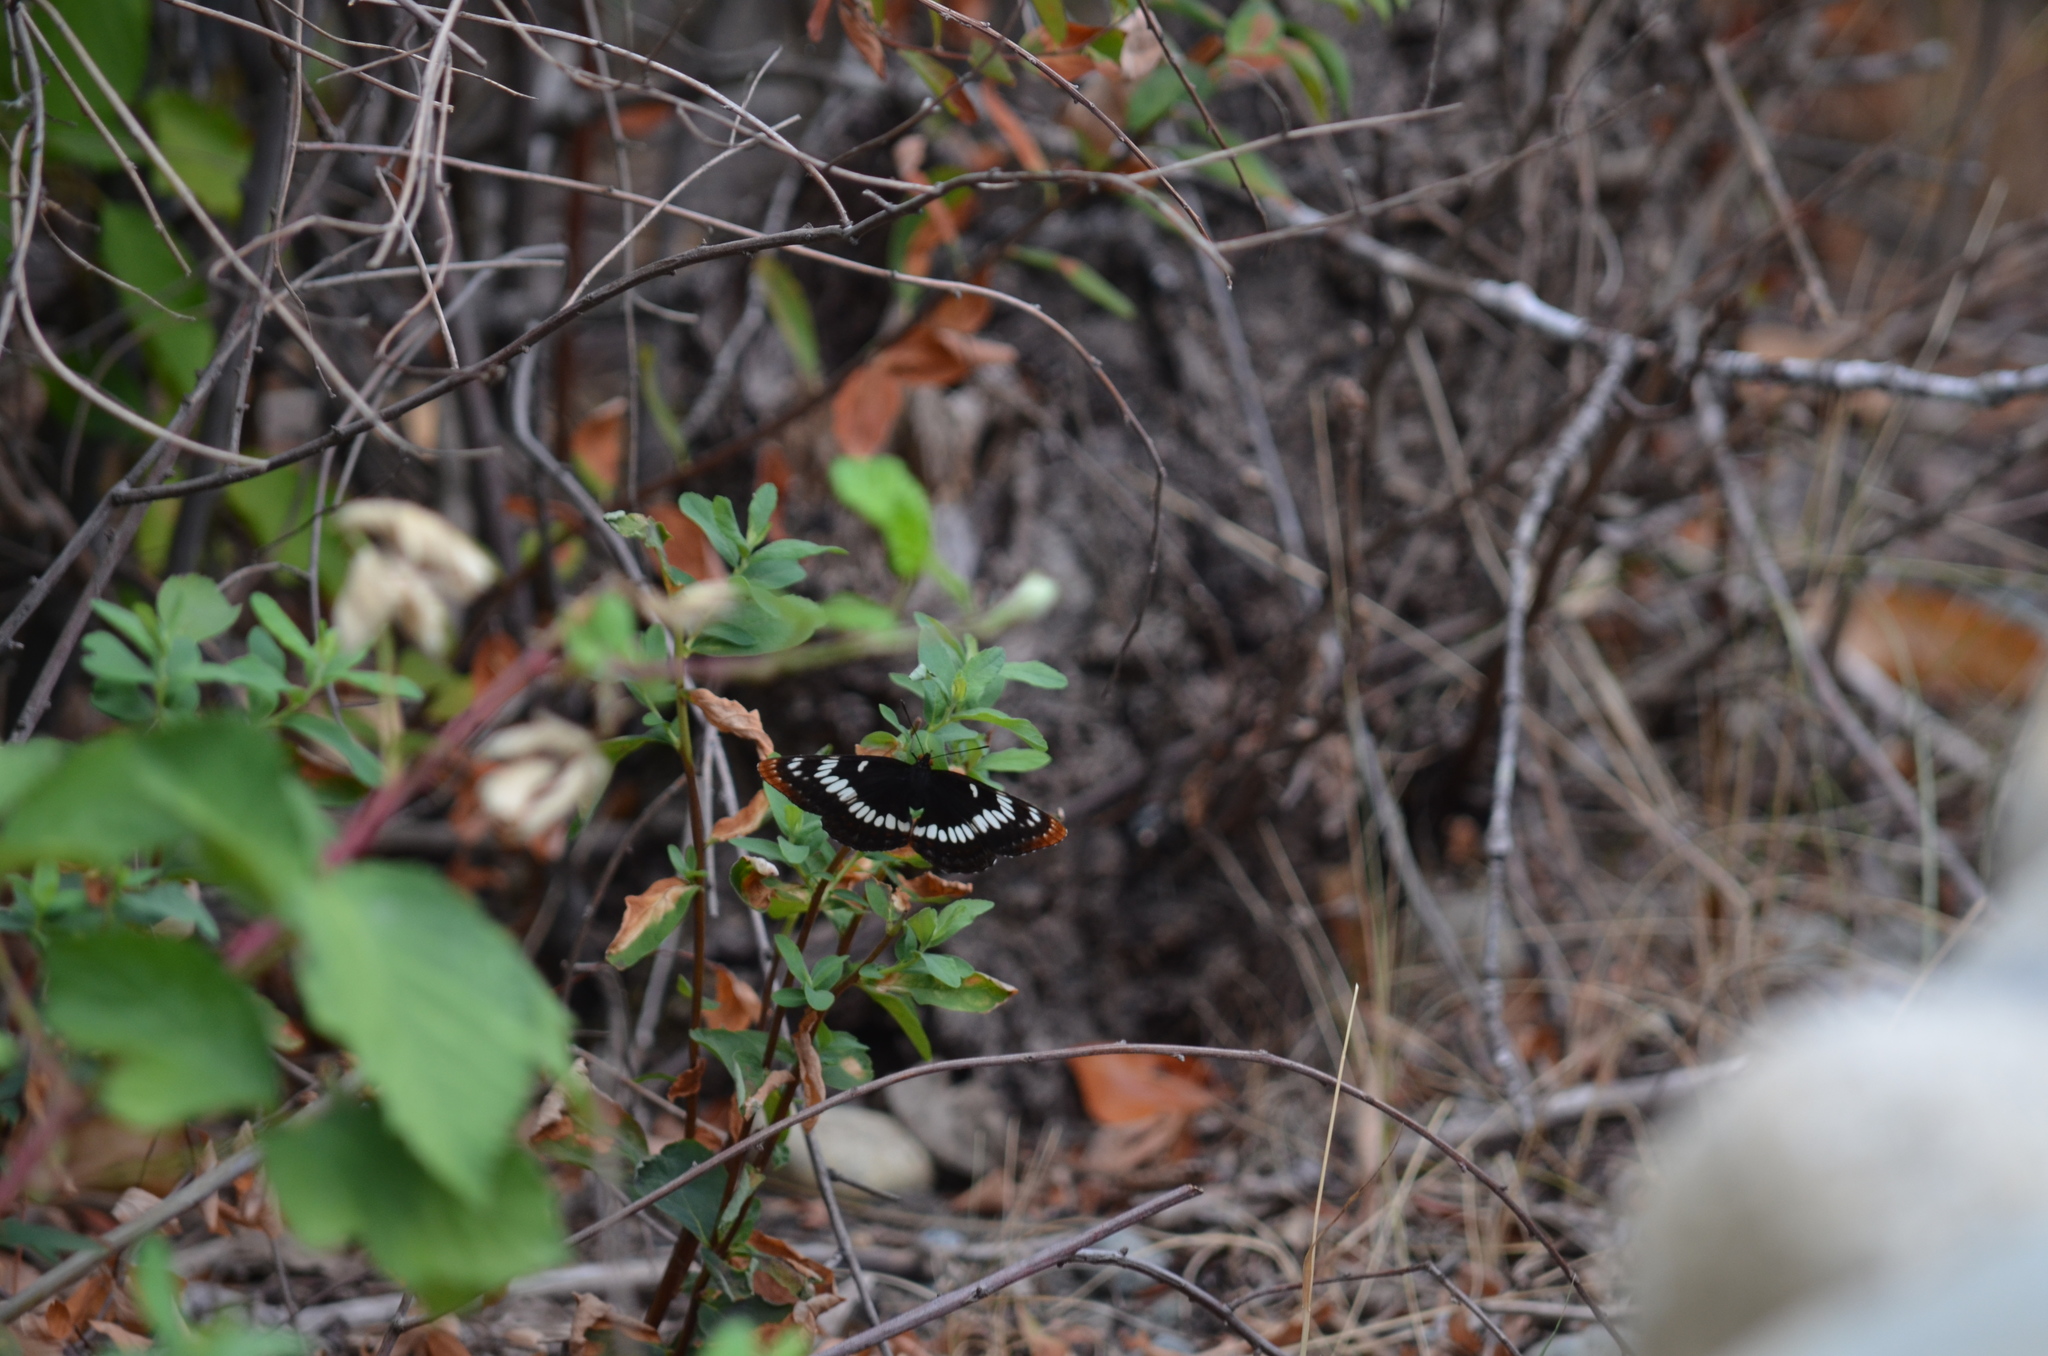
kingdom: Animalia
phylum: Arthropoda
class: Insecta
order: Lepidoptera
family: Nymphalidae
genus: Limenitis
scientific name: Limenitis lorquini
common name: Lorquin's admiral
